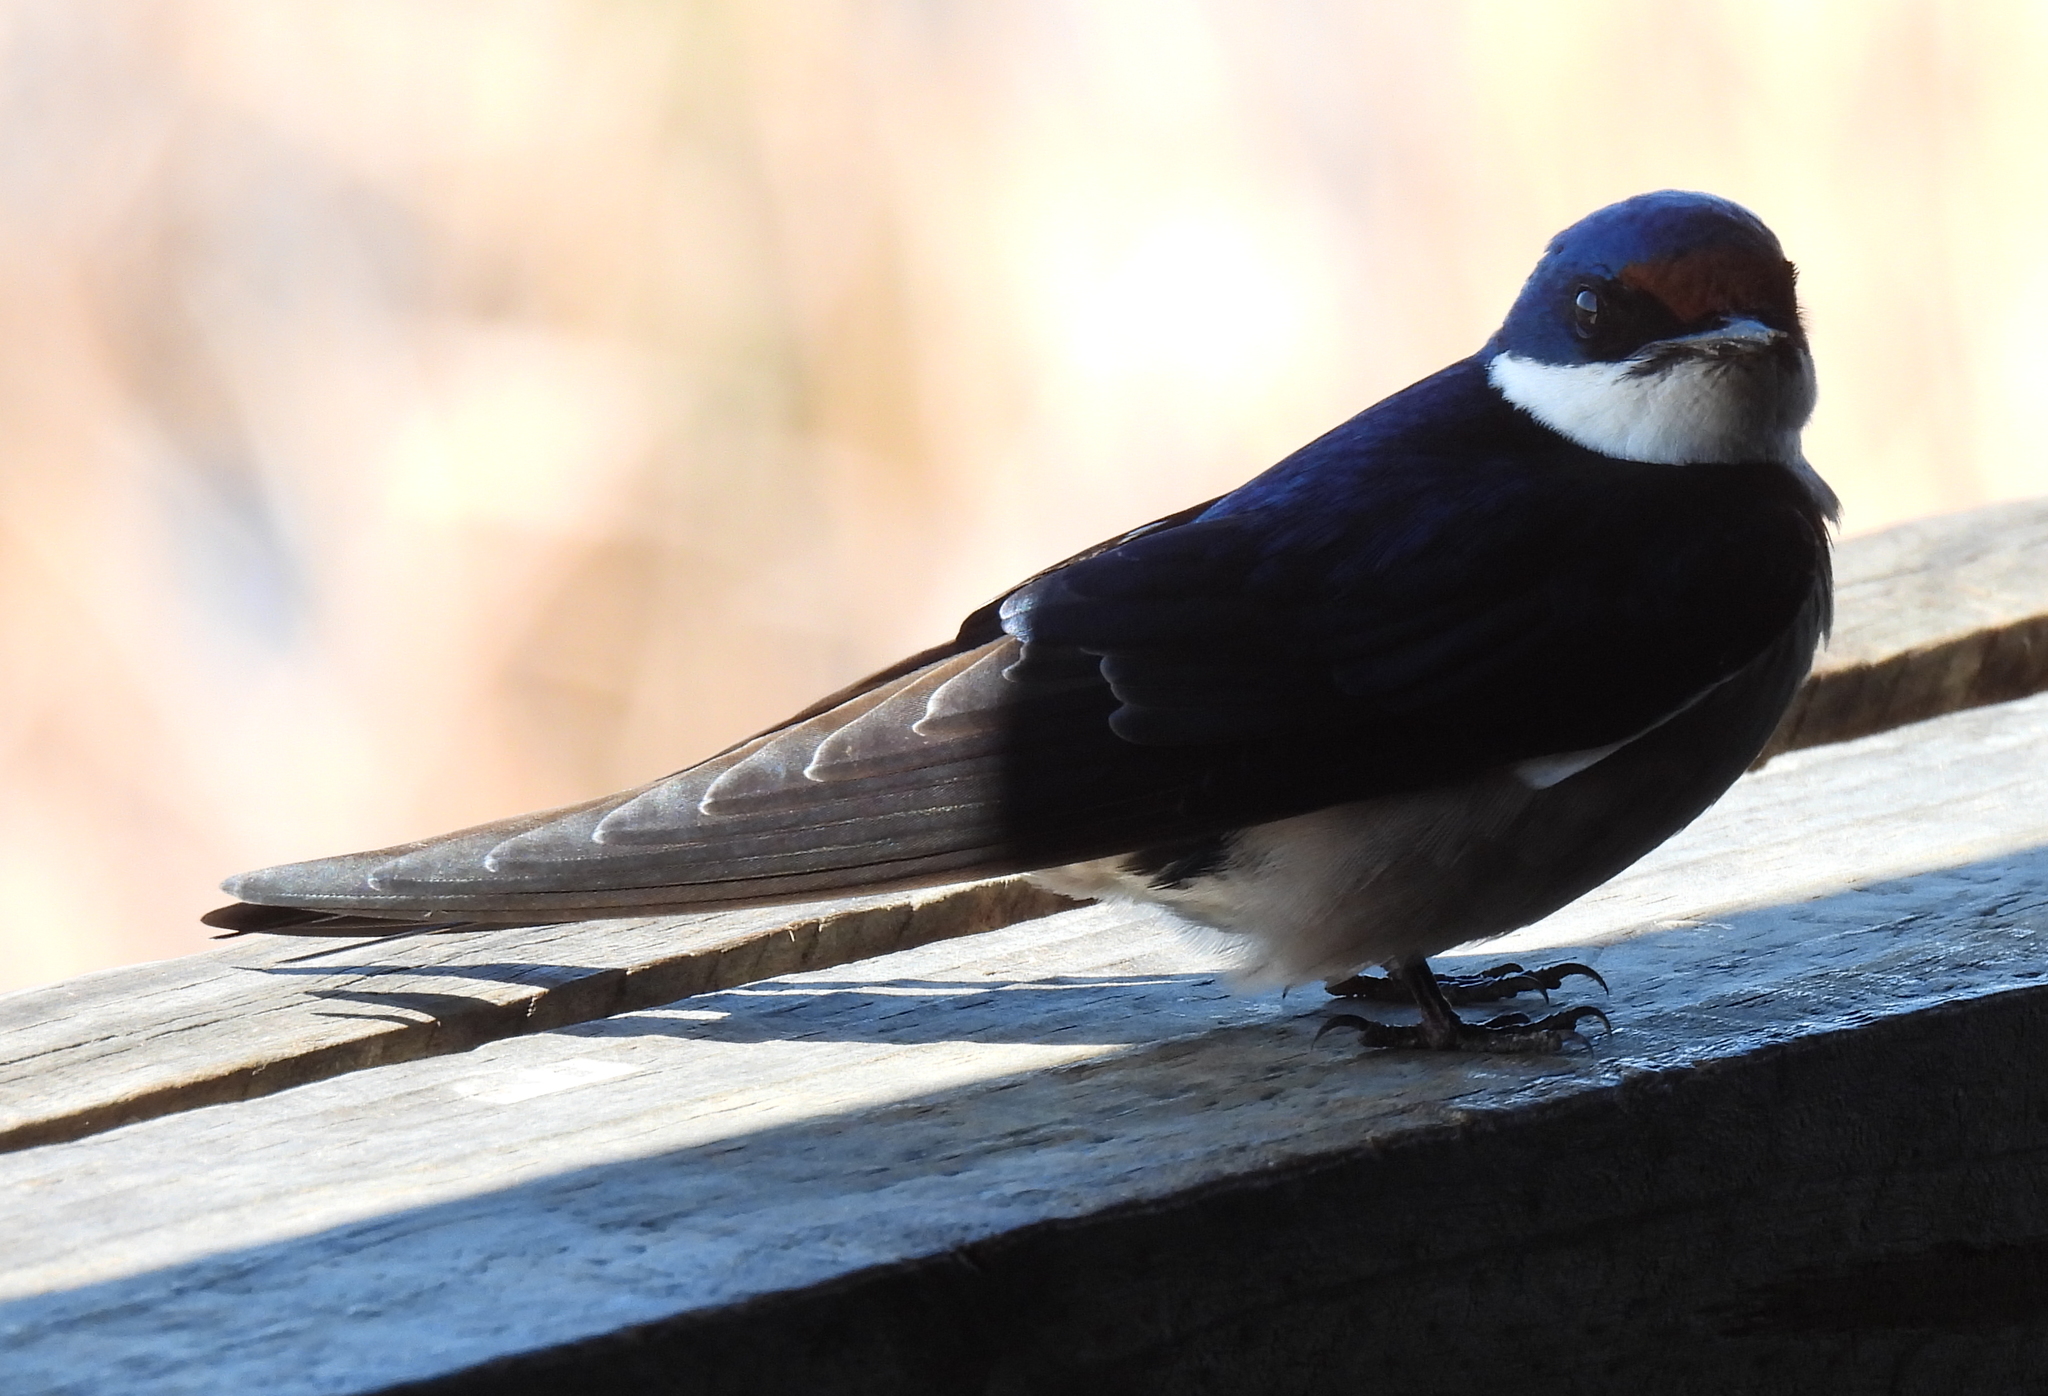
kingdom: Animalia
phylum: Chordata
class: Aves
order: Passeriformes
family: Hirundinidae
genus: Hirundo
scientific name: Hirundo albigularis
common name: White-throated swallow
